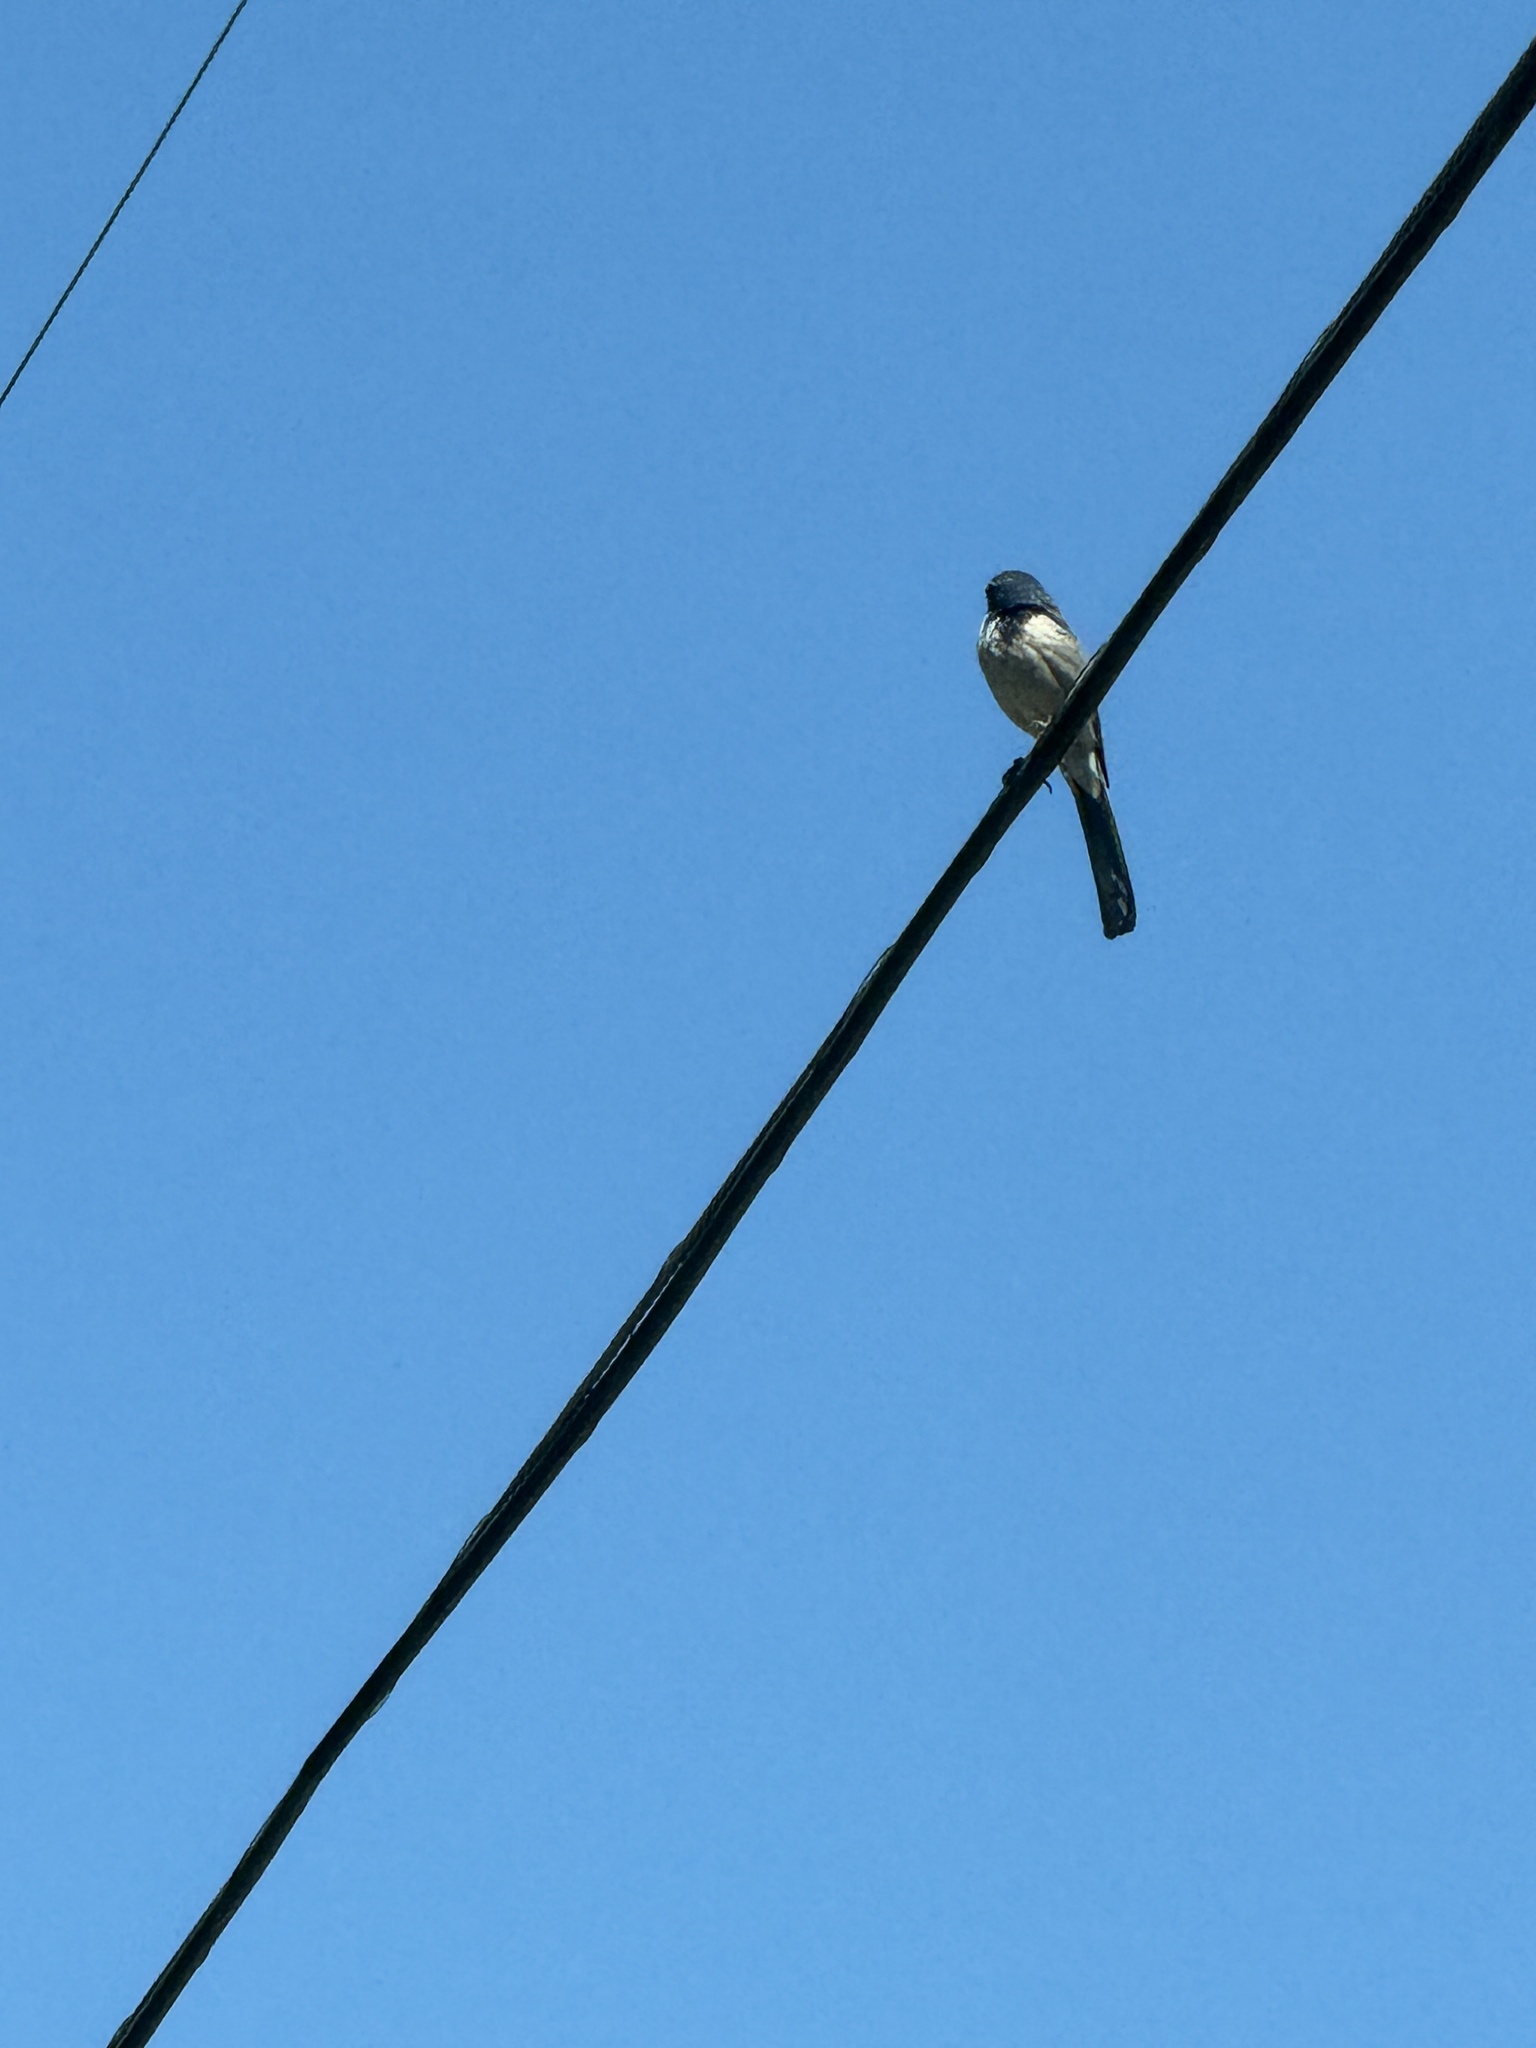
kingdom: Animalia
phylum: Chordata
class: Aves
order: Passeriformes
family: Corvidae
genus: Aphelocoma
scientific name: Aphelocoma californica
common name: California scrub-jay
